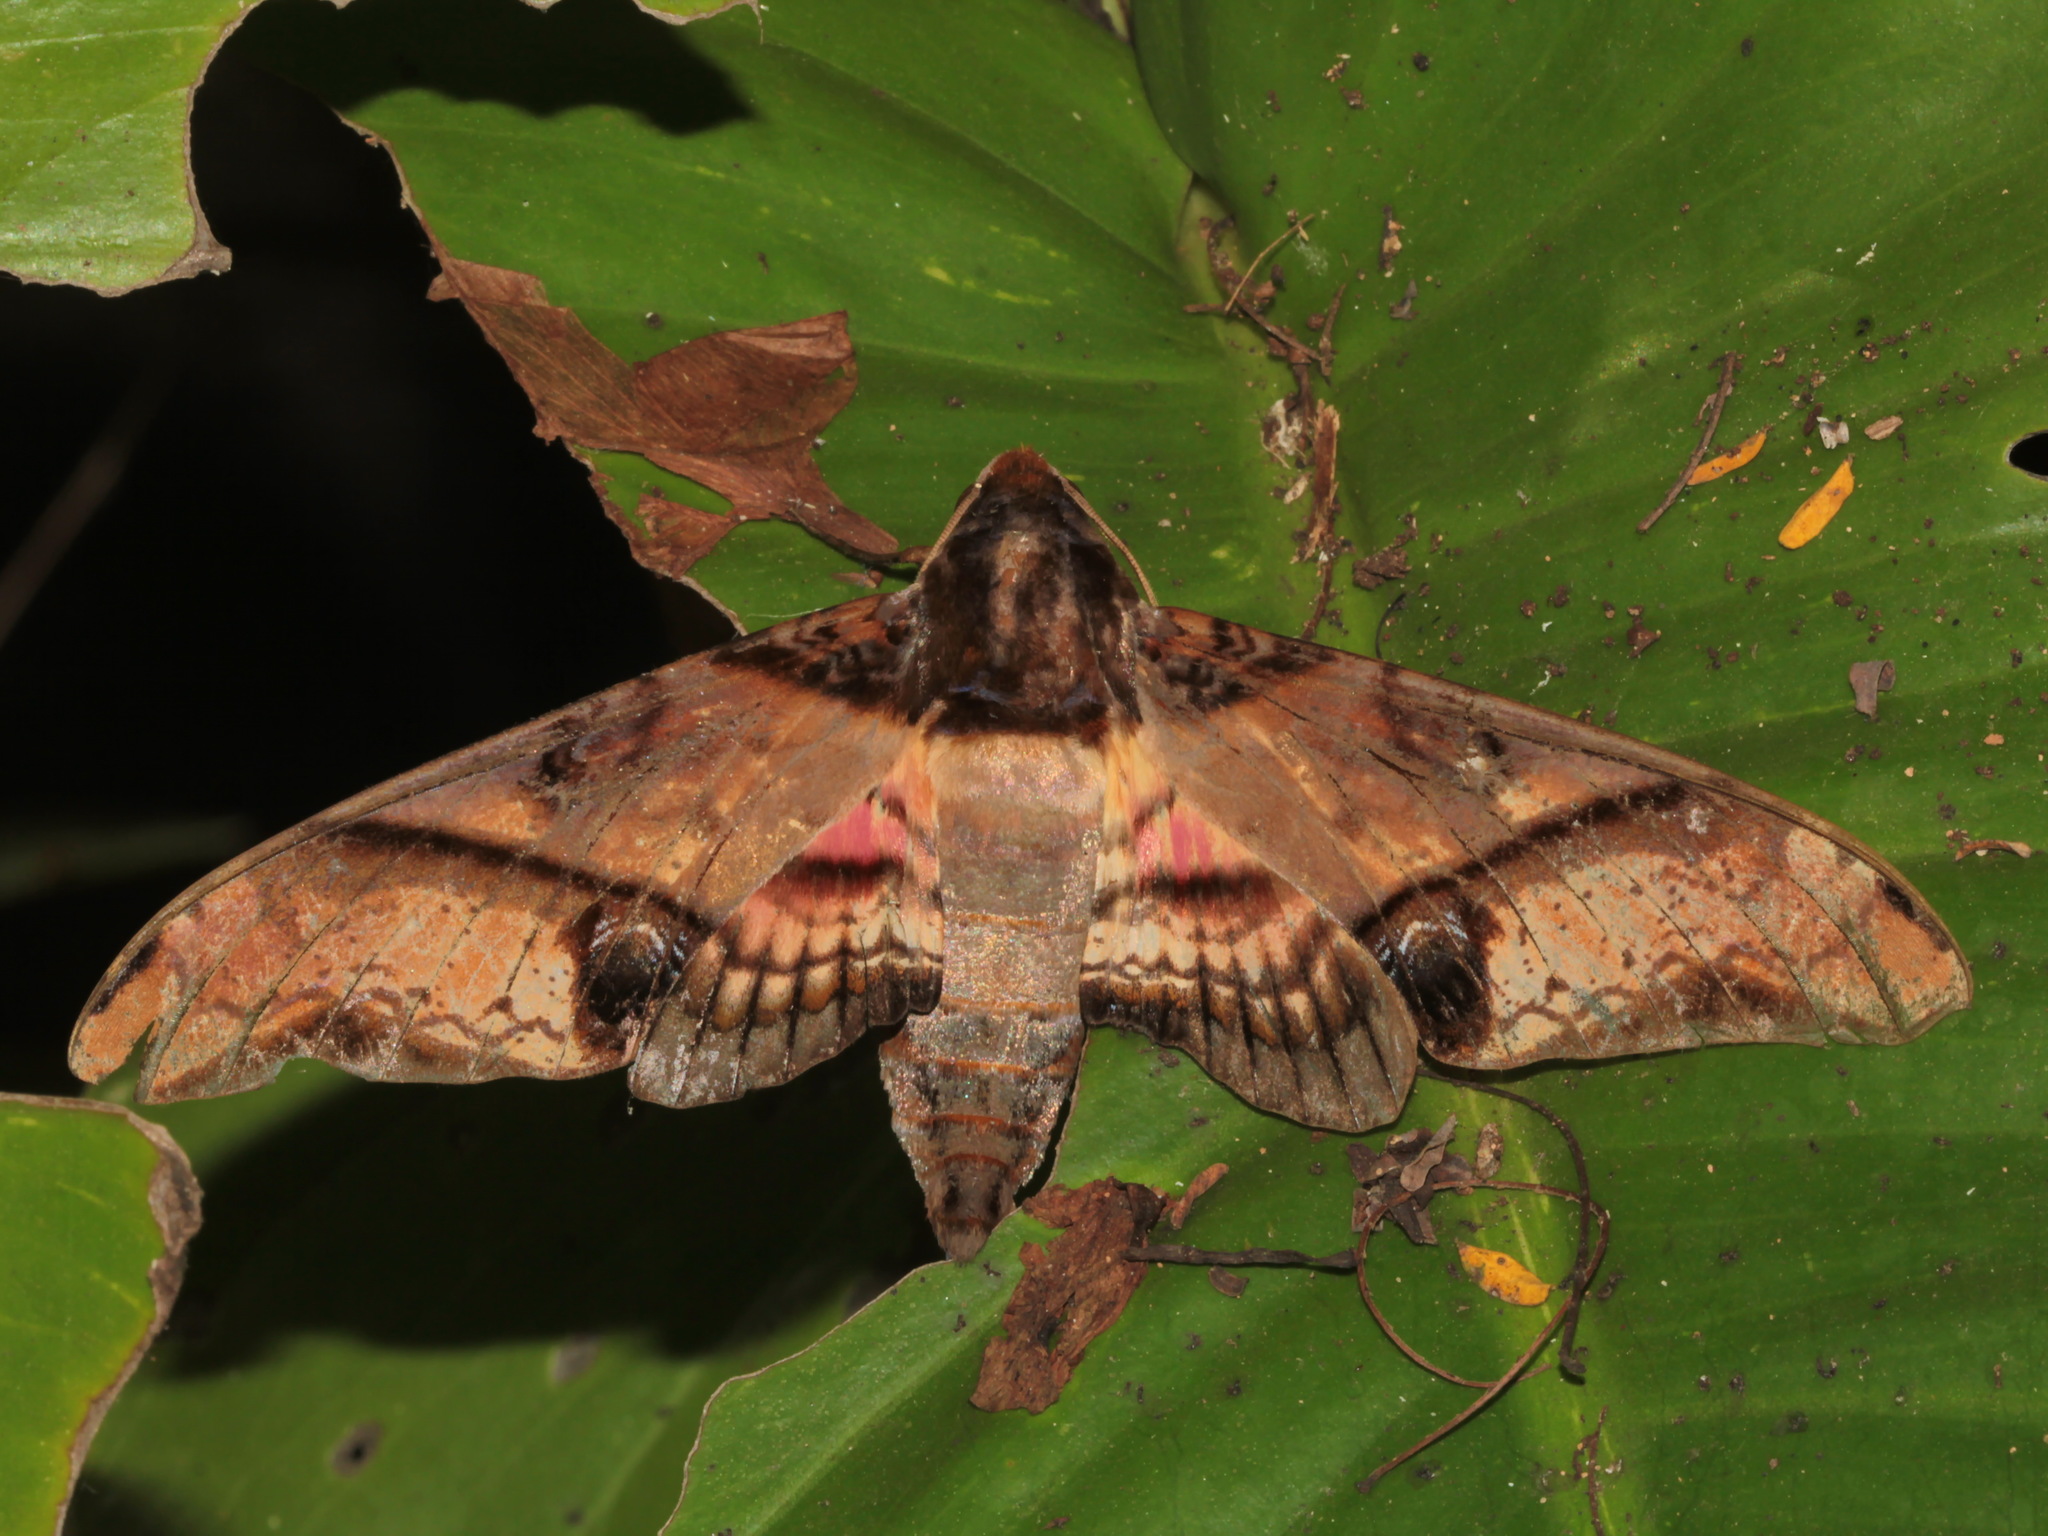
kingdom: Animalia
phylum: Arthropoda
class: Insecta
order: Lepidoptera
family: Sphingidae
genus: Amplypterus
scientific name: Amplypterus panopus
